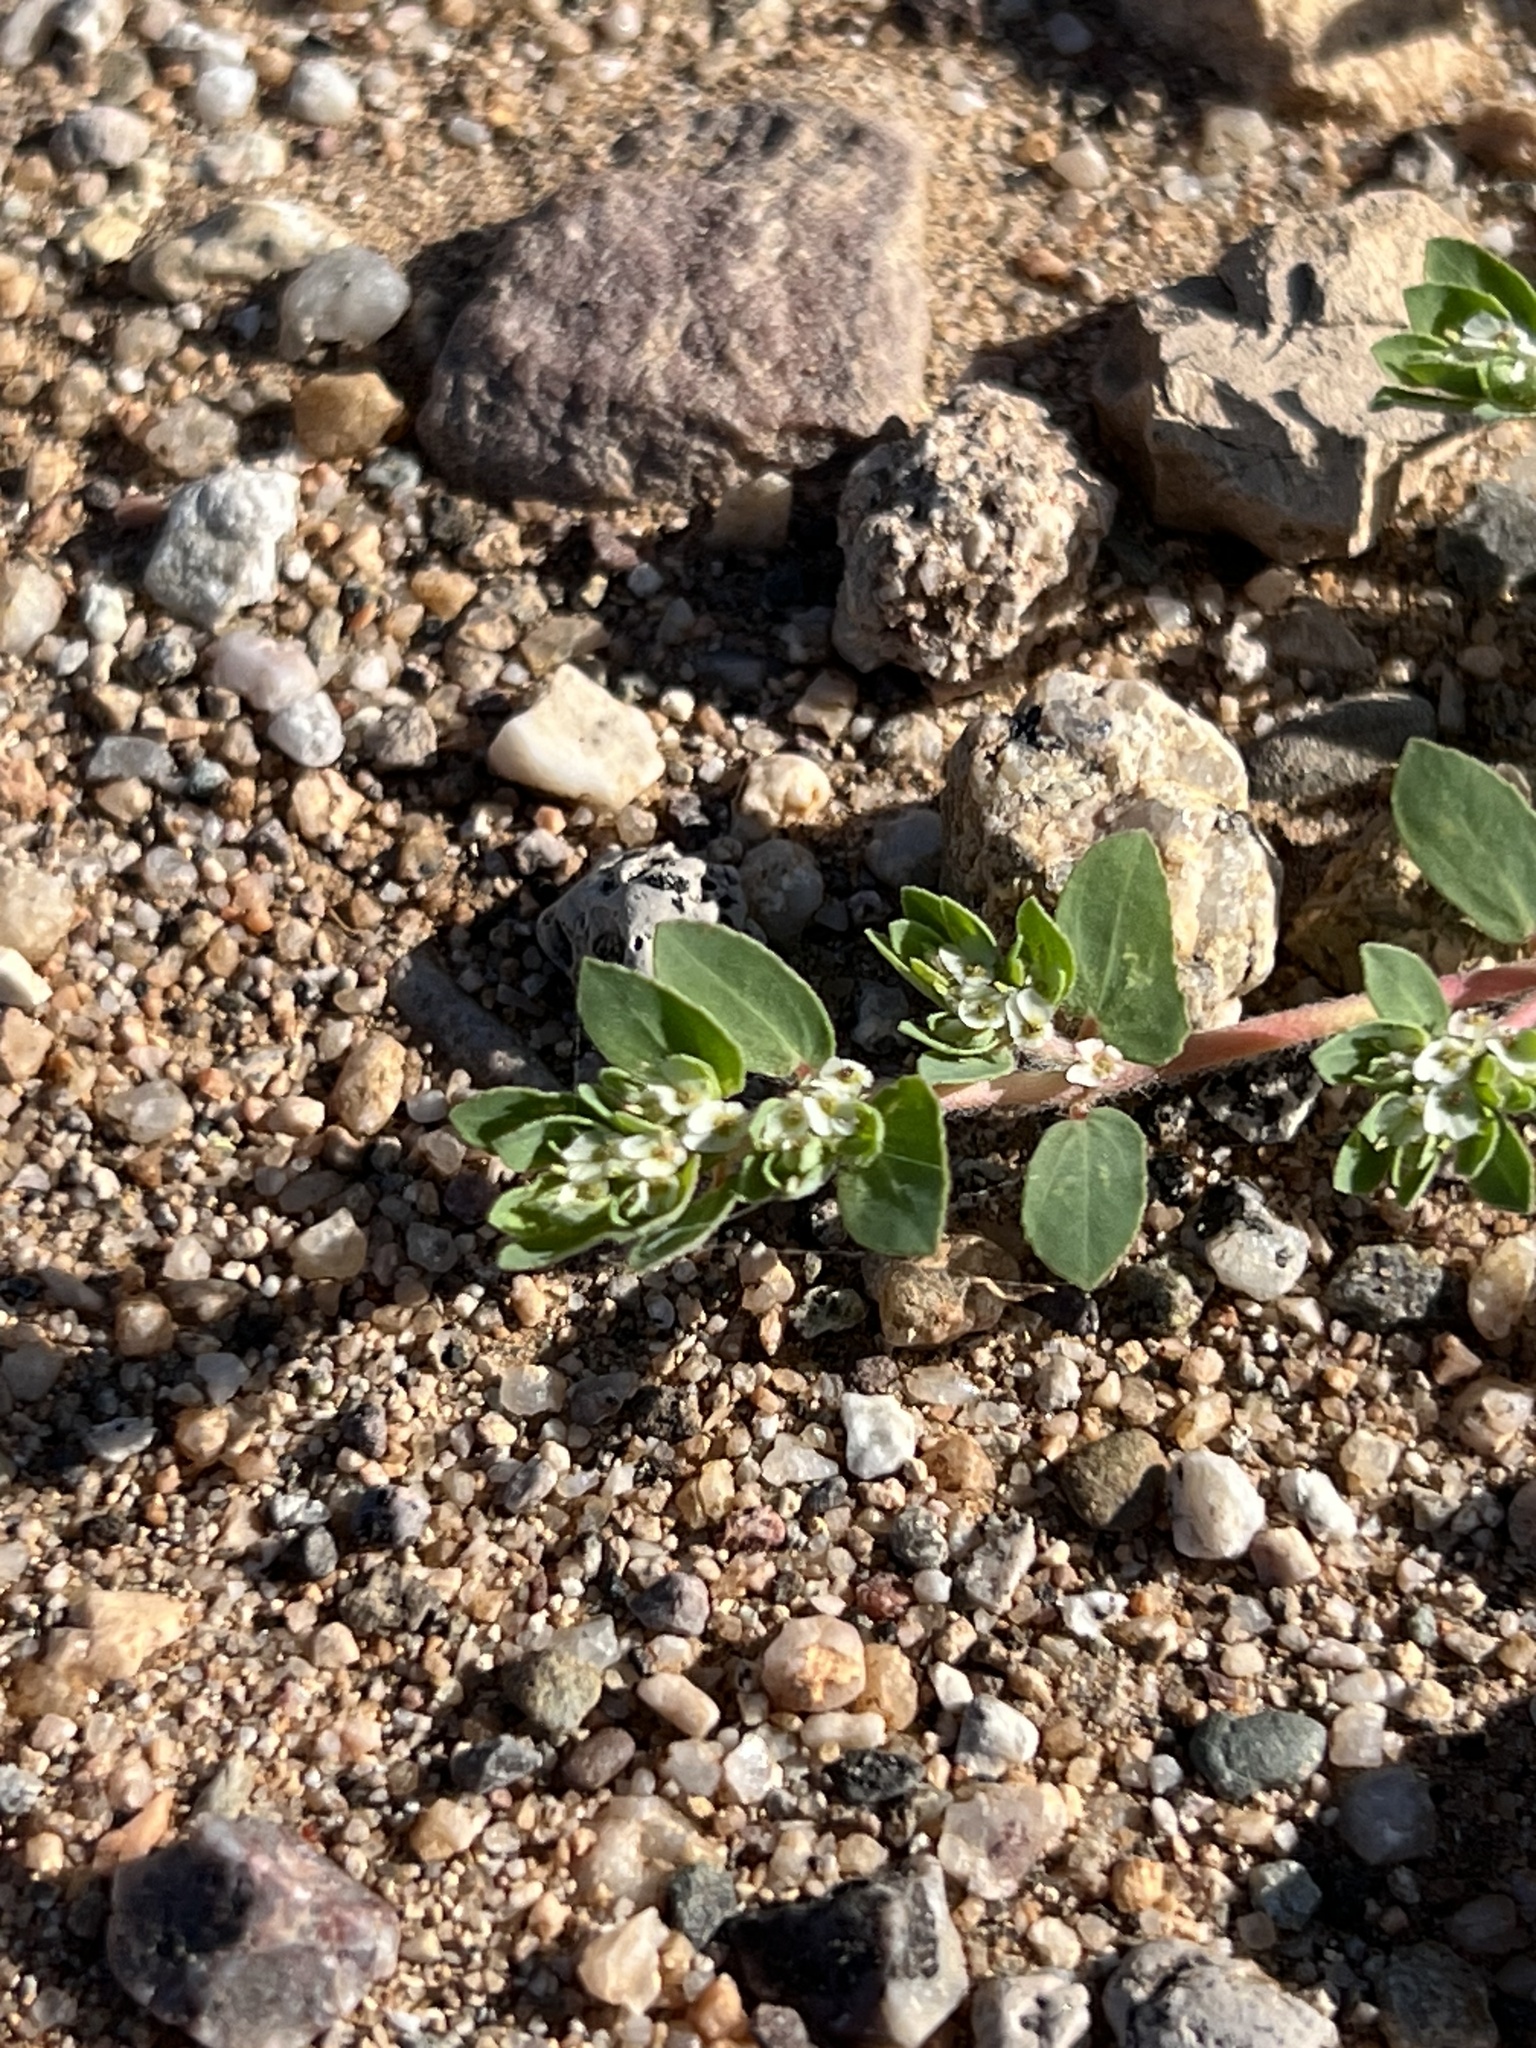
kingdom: Plantae
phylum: Tracheophyta
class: Magnoliopsida
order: Malpighiales
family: Euphorbiaceae
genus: Euphorbia
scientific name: Euphorbia indivisa
